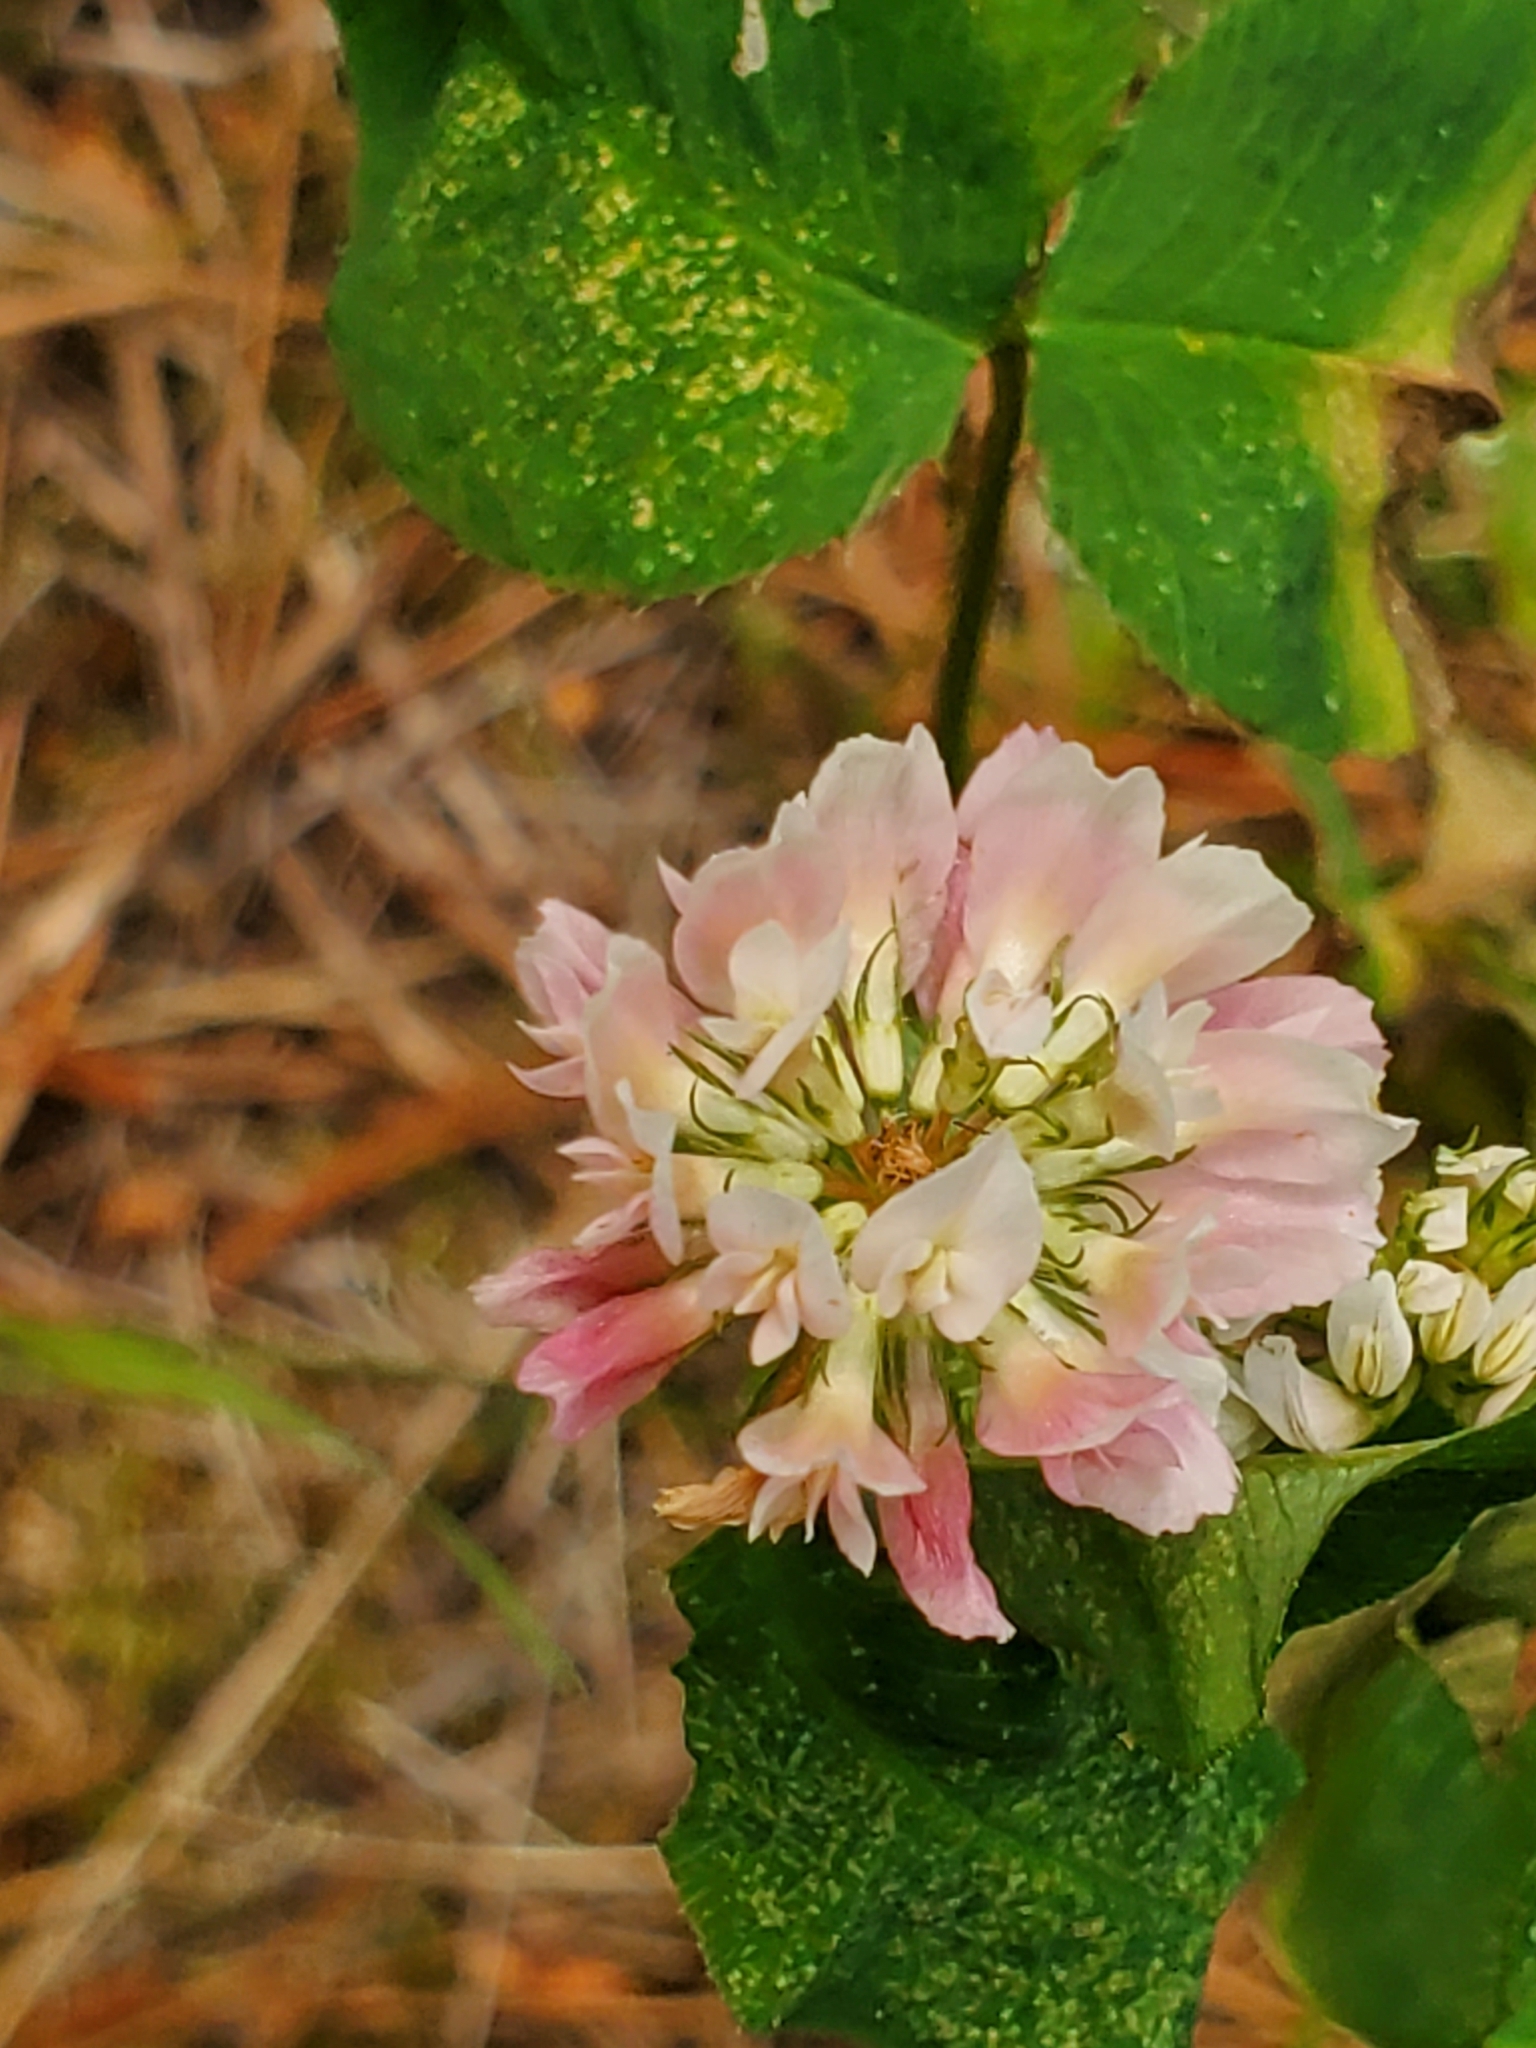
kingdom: Plantae
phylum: Tracheophyta
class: Magnoliopsida
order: Fabales
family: Fabaceae
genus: Trifolium
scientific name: Trifolium hybridum
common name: Alsike clover
